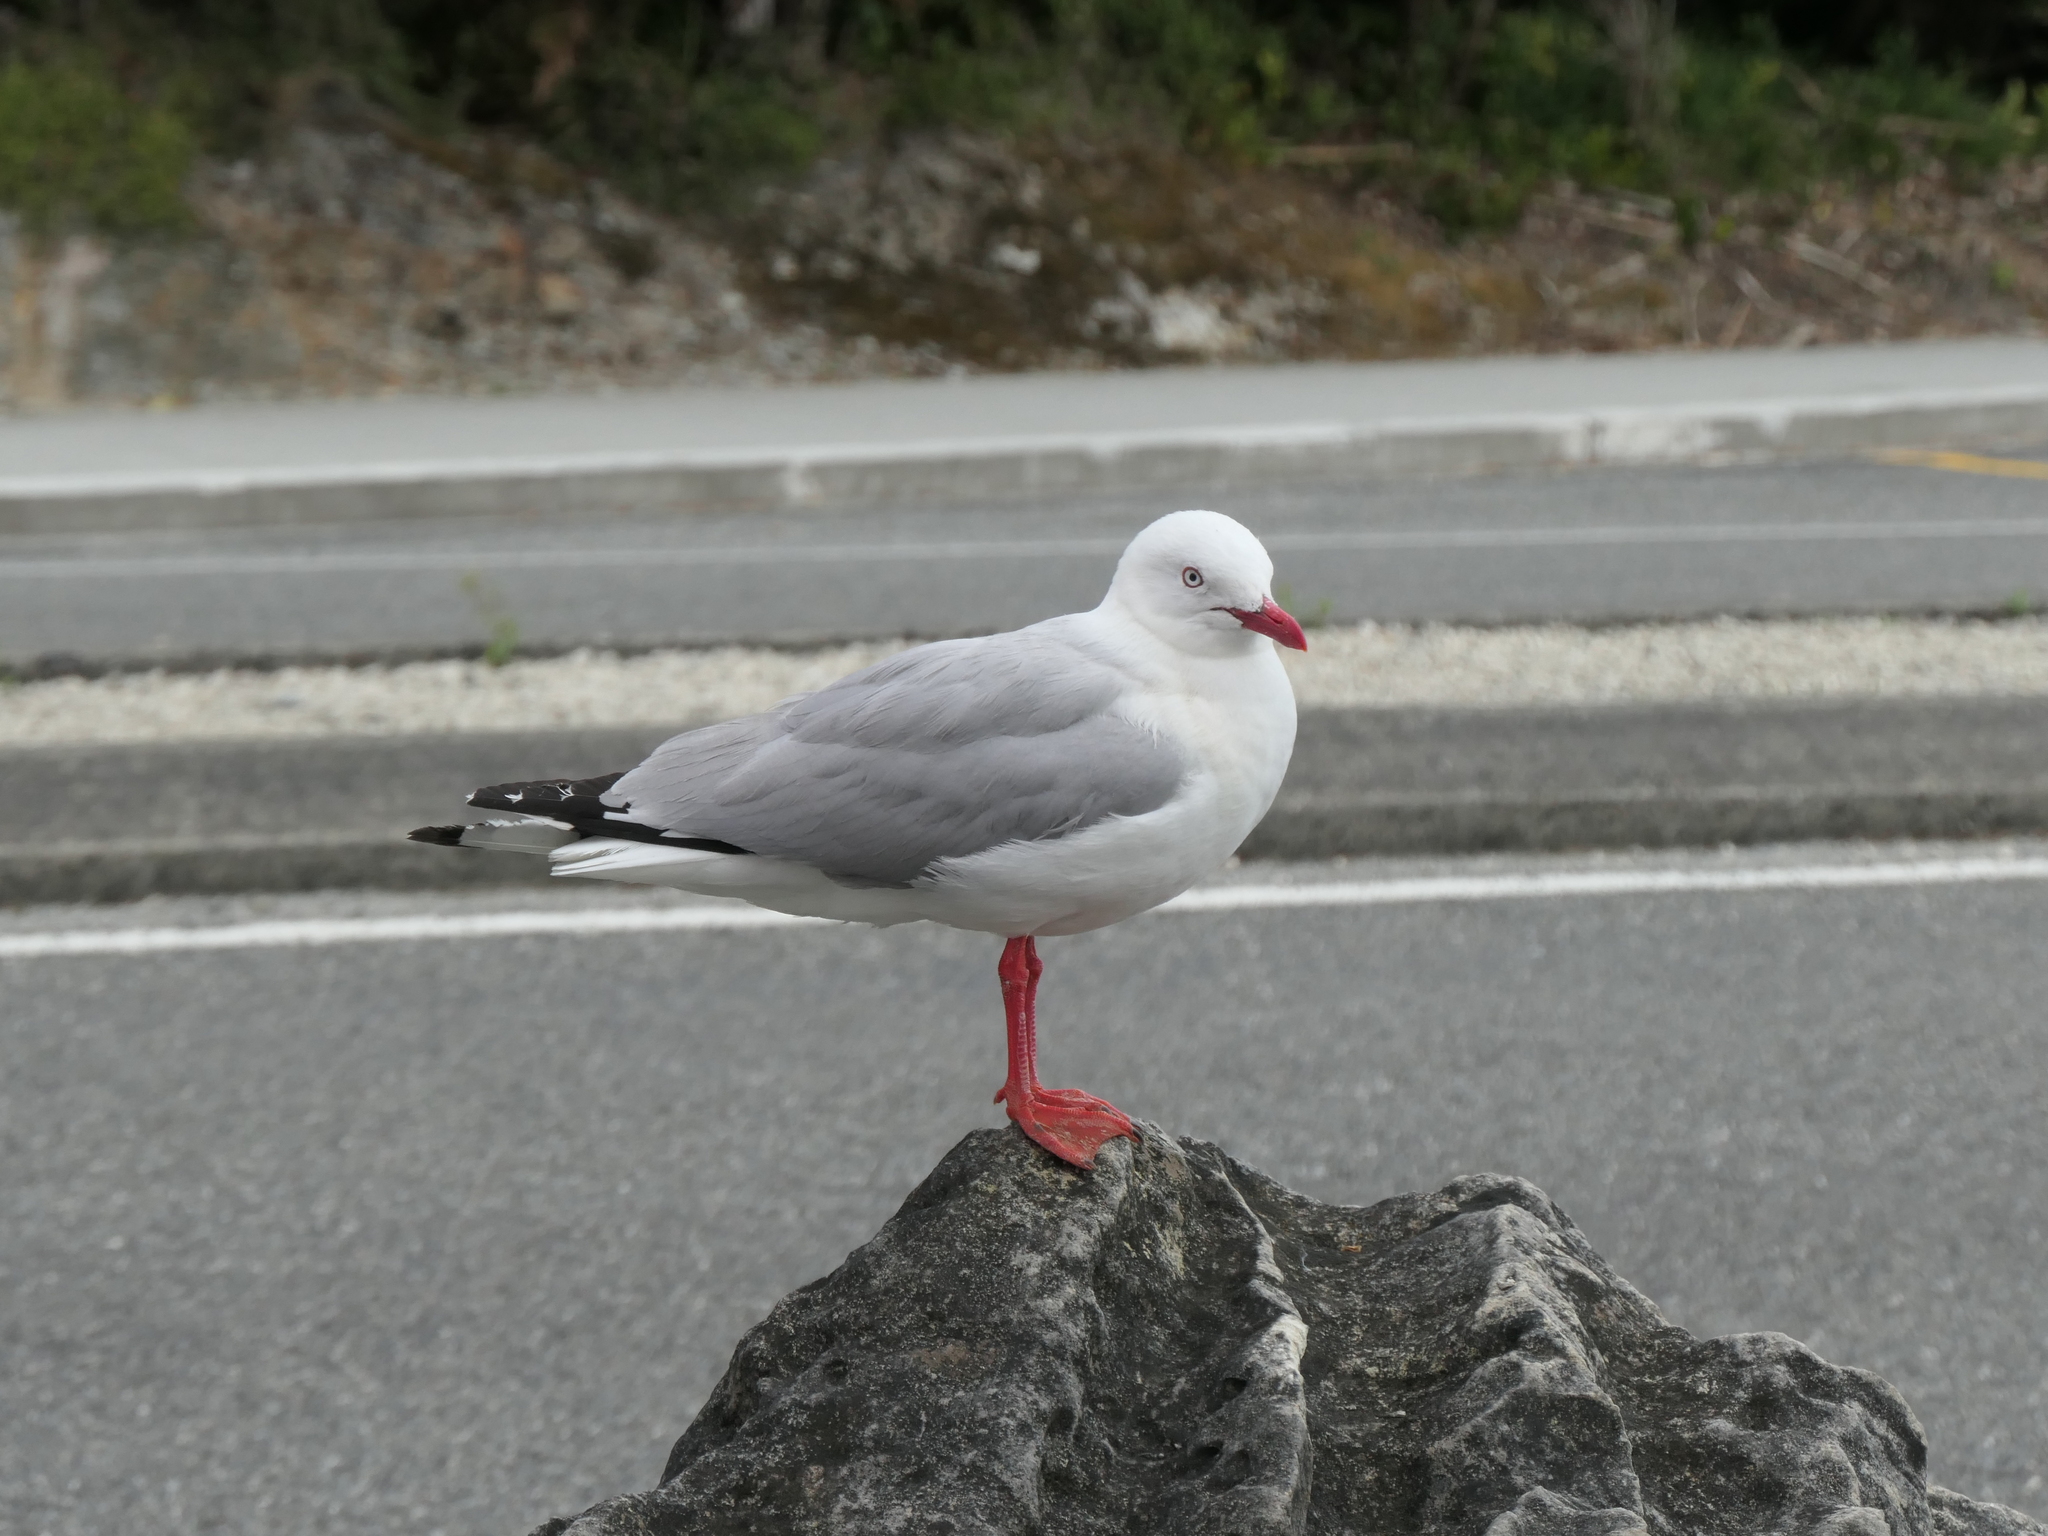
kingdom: Animalia
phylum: Chordata
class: Aves
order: Charadriiformes
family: Laridae
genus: Chroicocephalus
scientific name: Chroicocephalus novaehollandiae
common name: Silver gull
